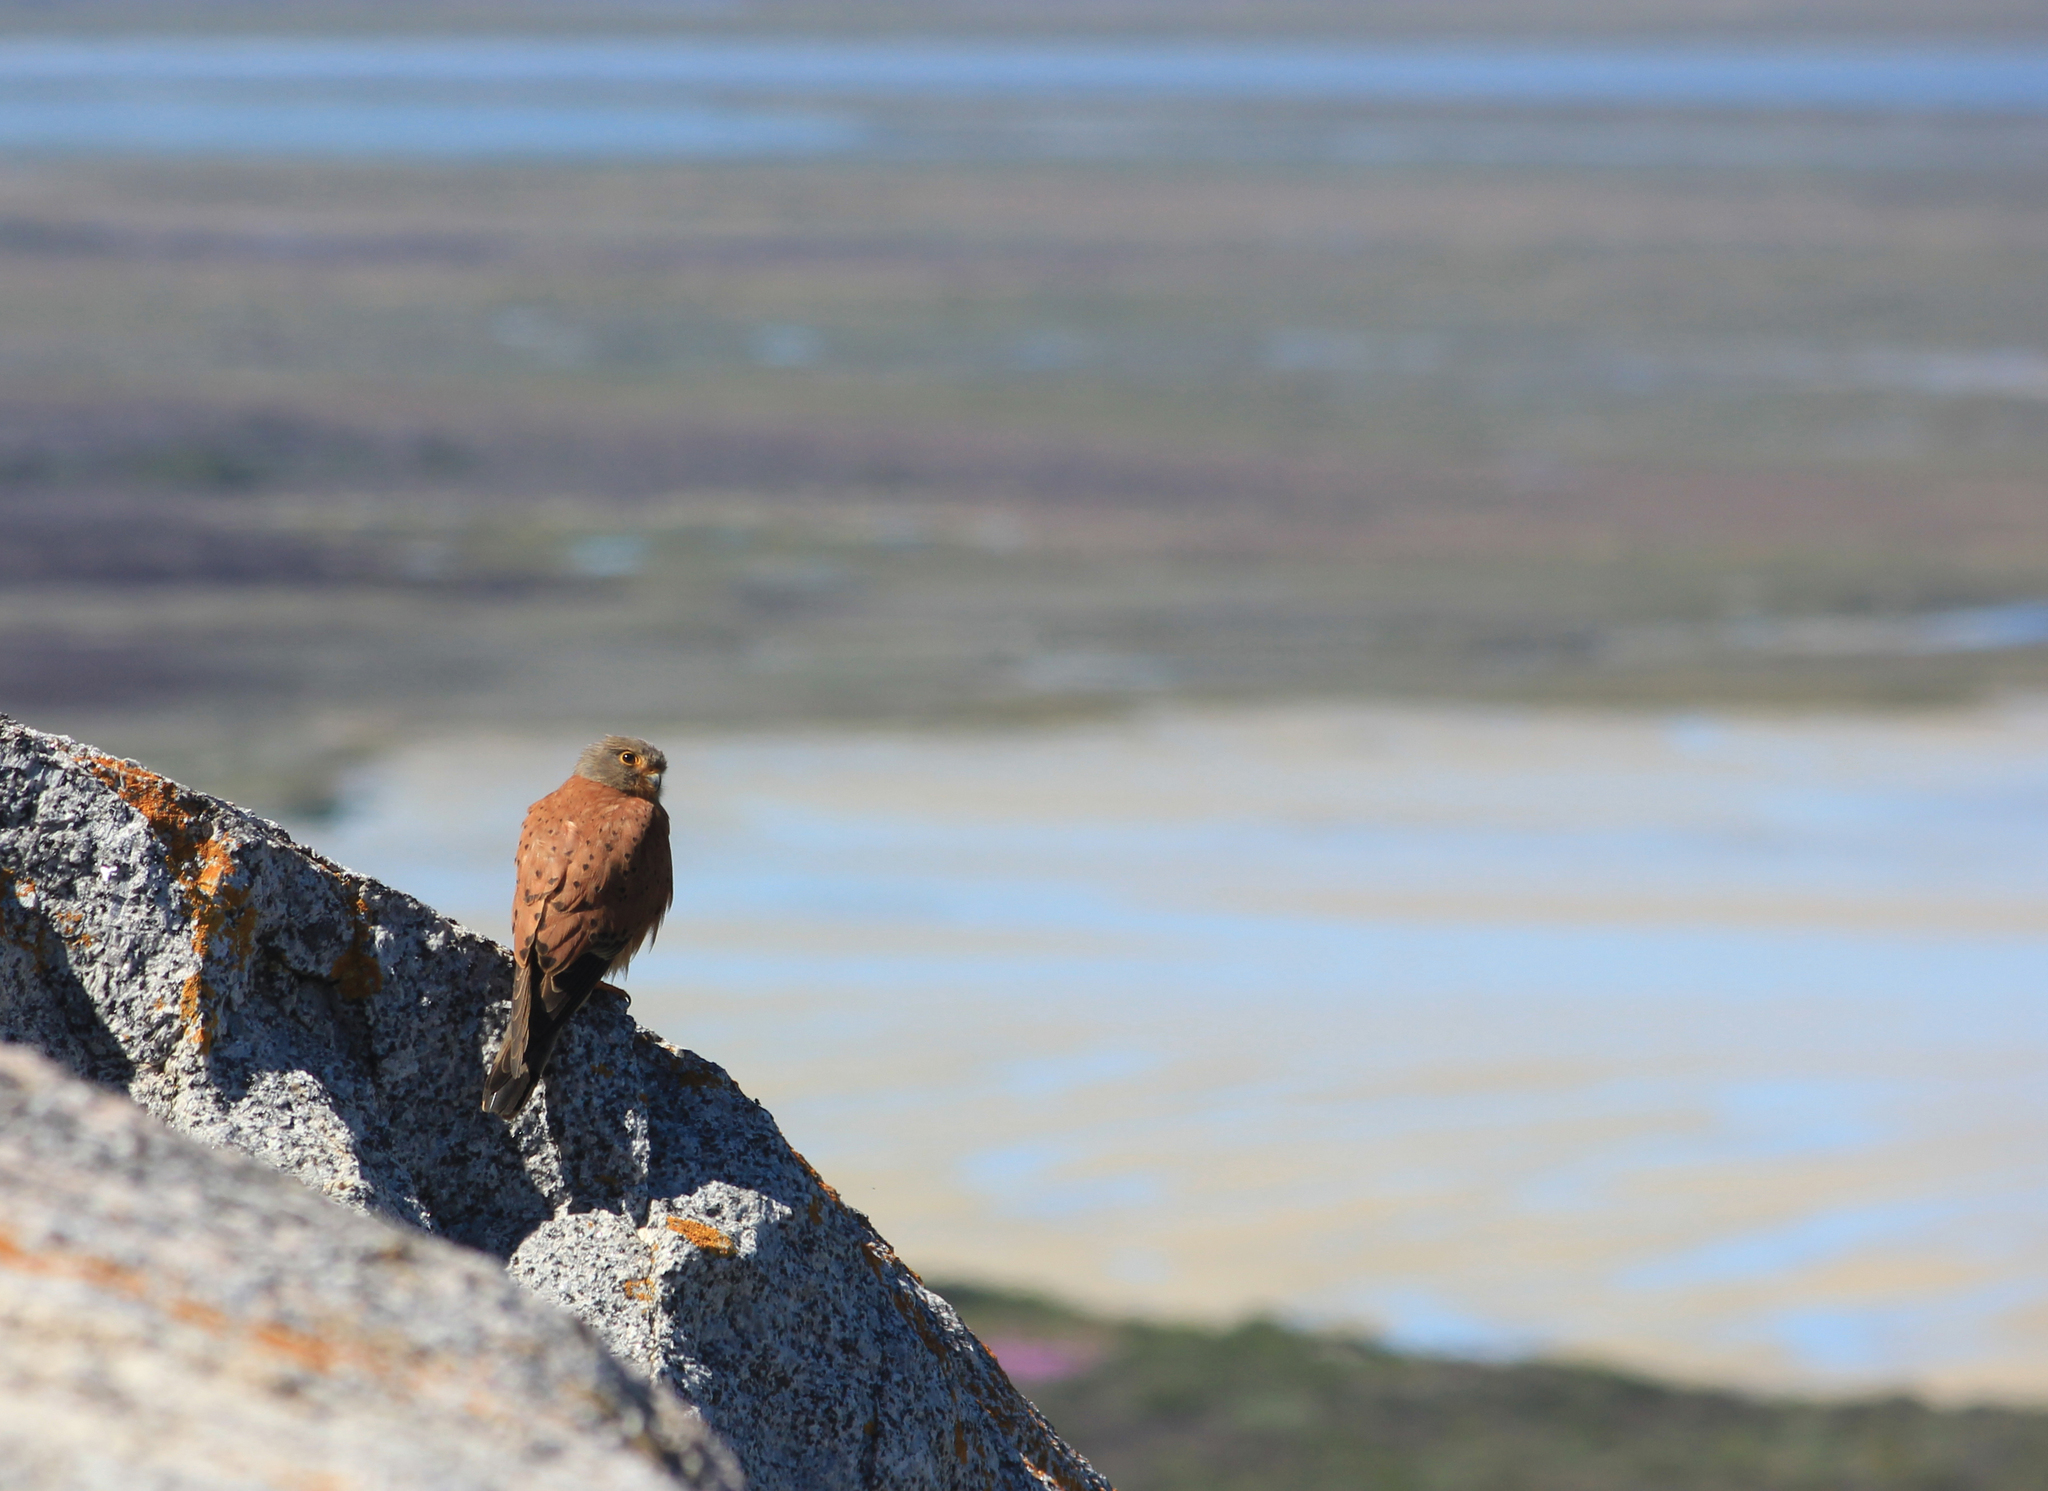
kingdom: Animalia
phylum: Chordata
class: Aves
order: Falconiformes
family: Falconidae
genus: Falco
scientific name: Falco rupicolus
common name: Rock kestrel
